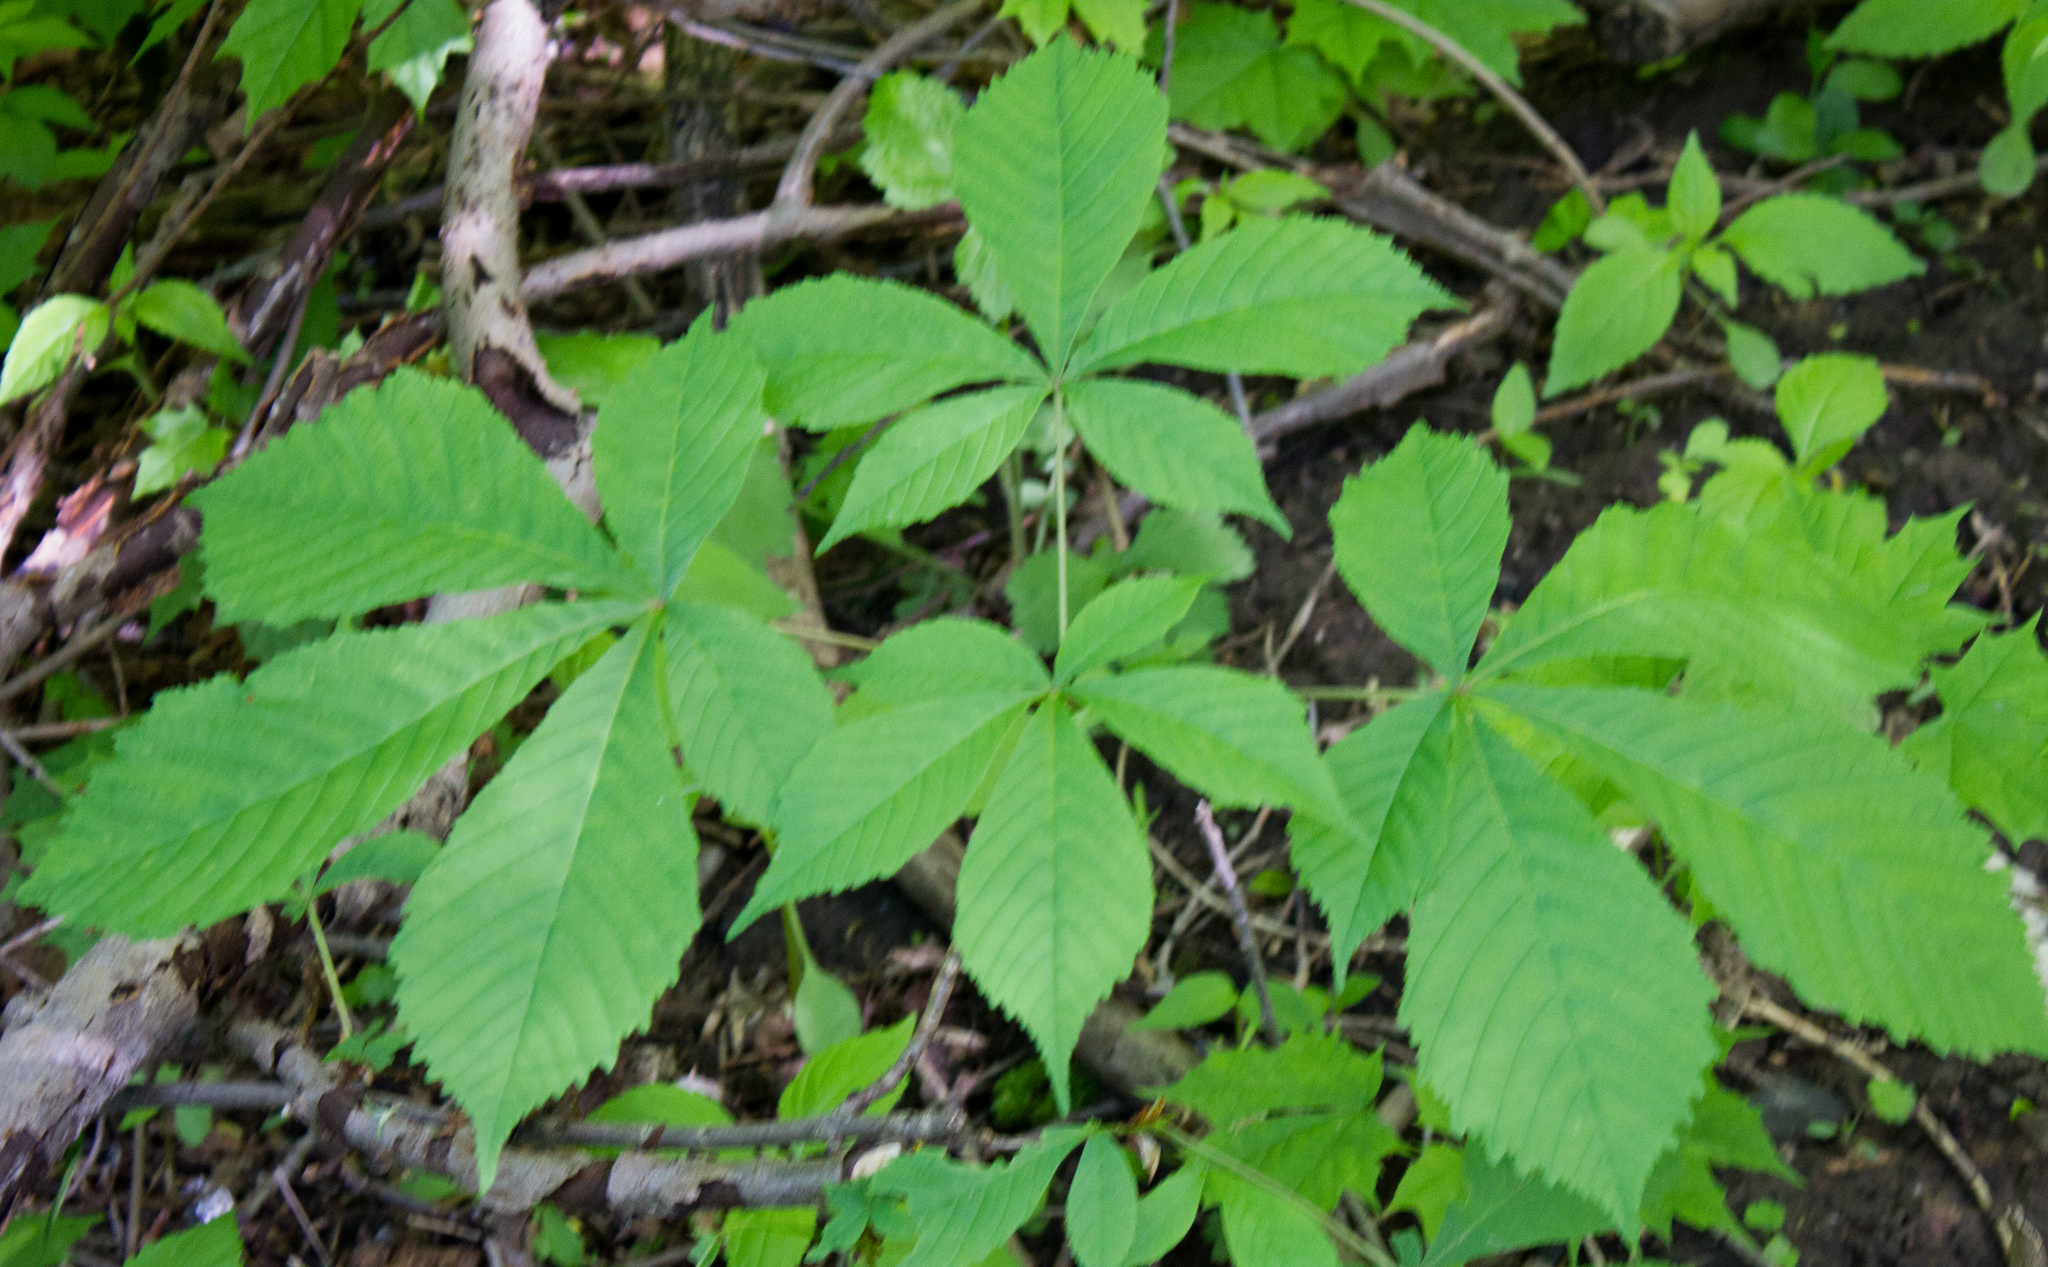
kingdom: Plantae
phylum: Tracheophyta
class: Magnoliopsida
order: Sapindales
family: Sapindaceae
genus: Aesculus
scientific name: Aesculus hippocastanum
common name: Horse-chestnut
